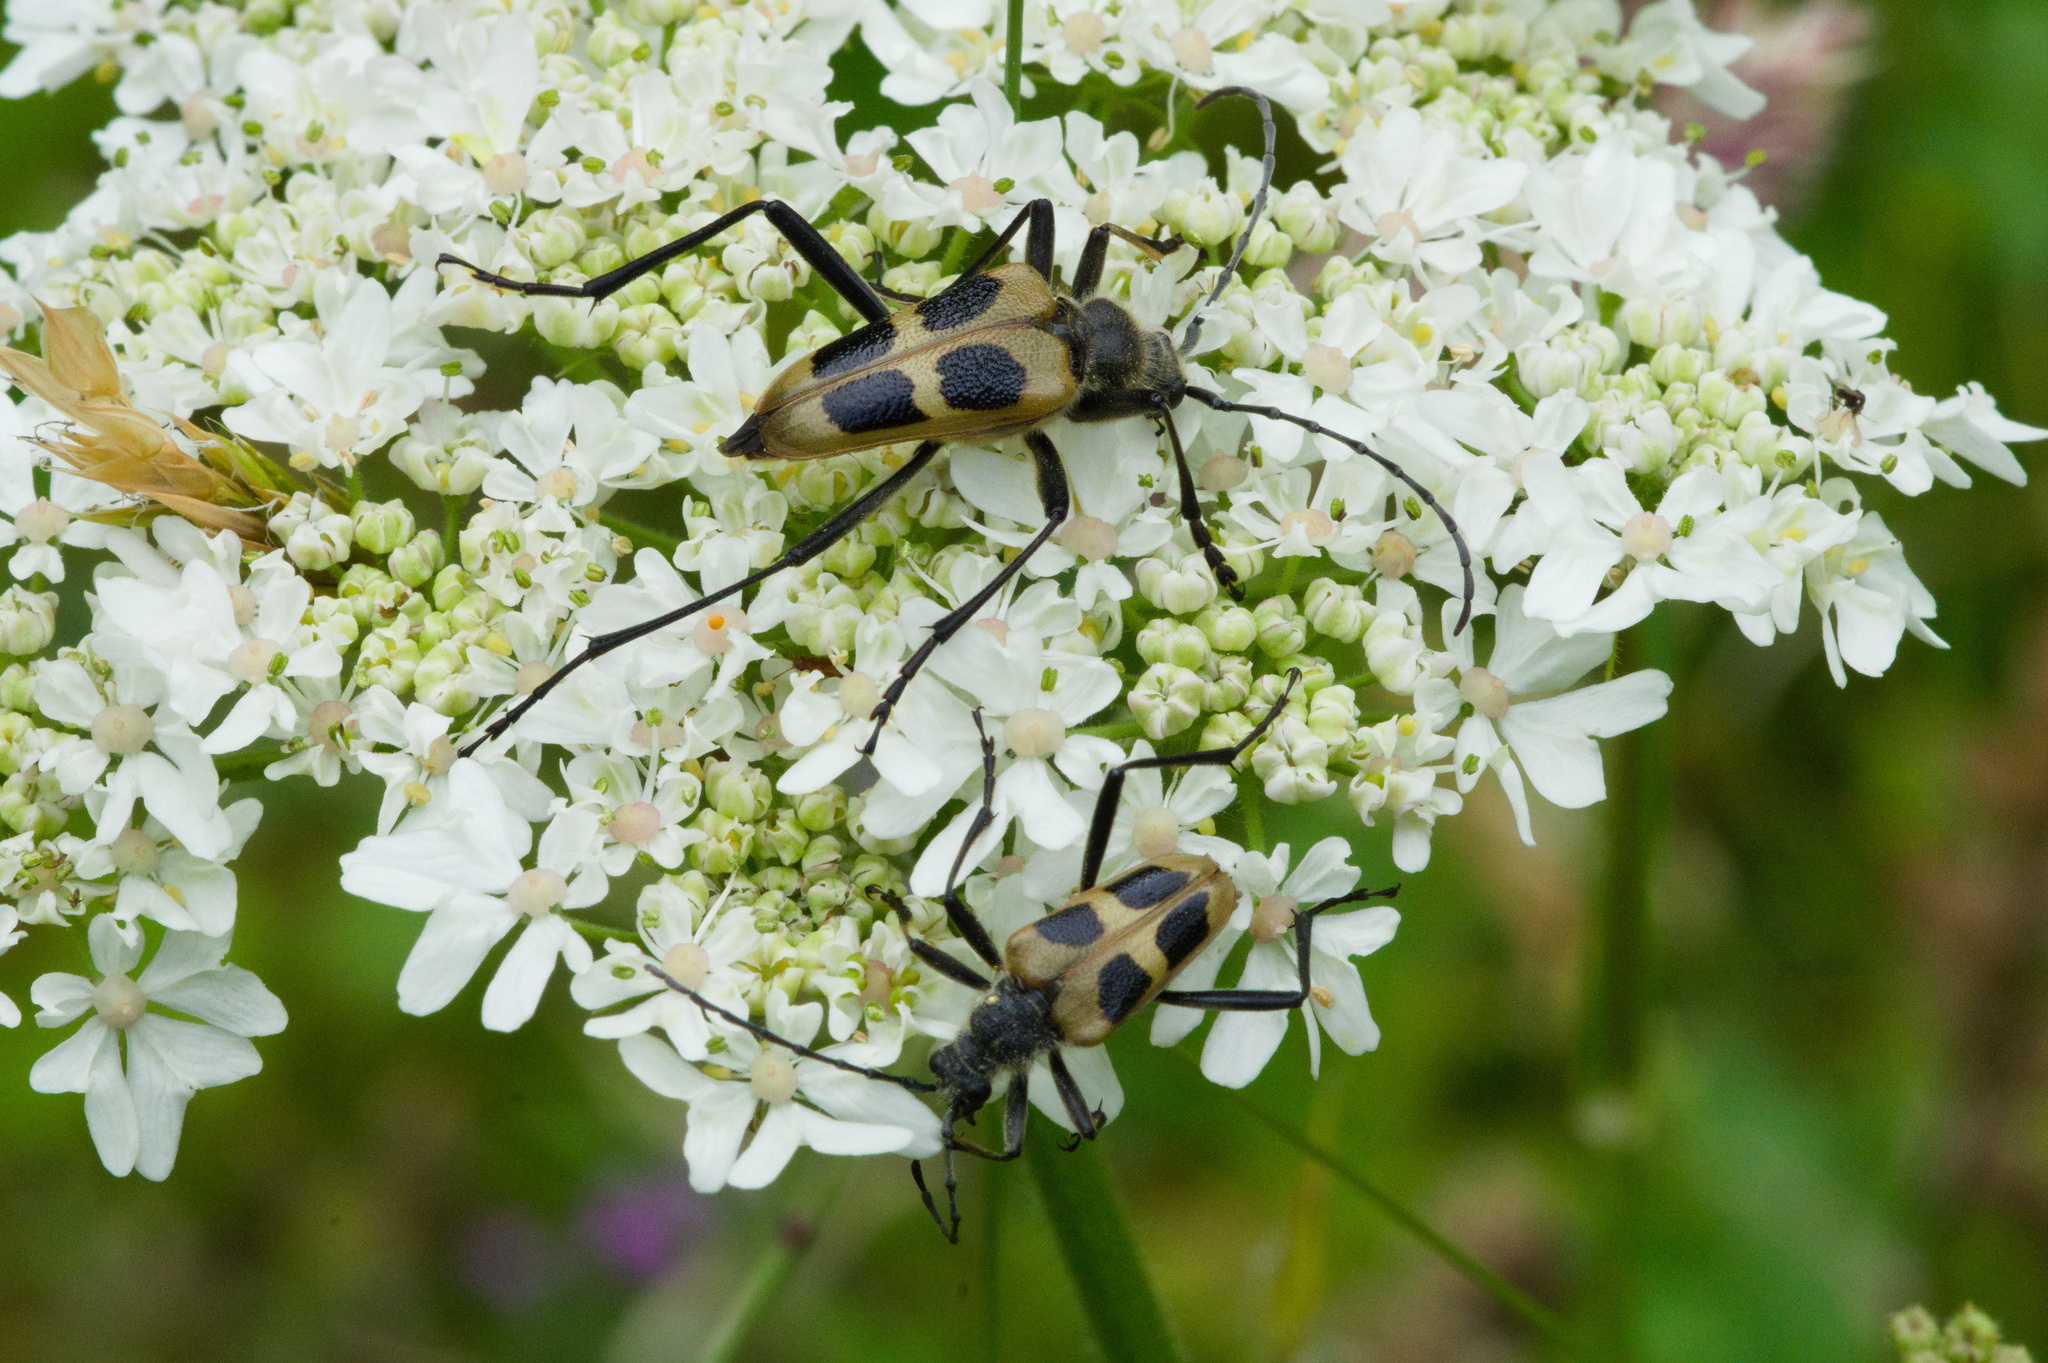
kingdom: Animalia
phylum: Arthropoda
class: Insecta
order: Coleoptera
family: Cerambycidae
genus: Pachyta
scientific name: Pachyta quadrimaculata
